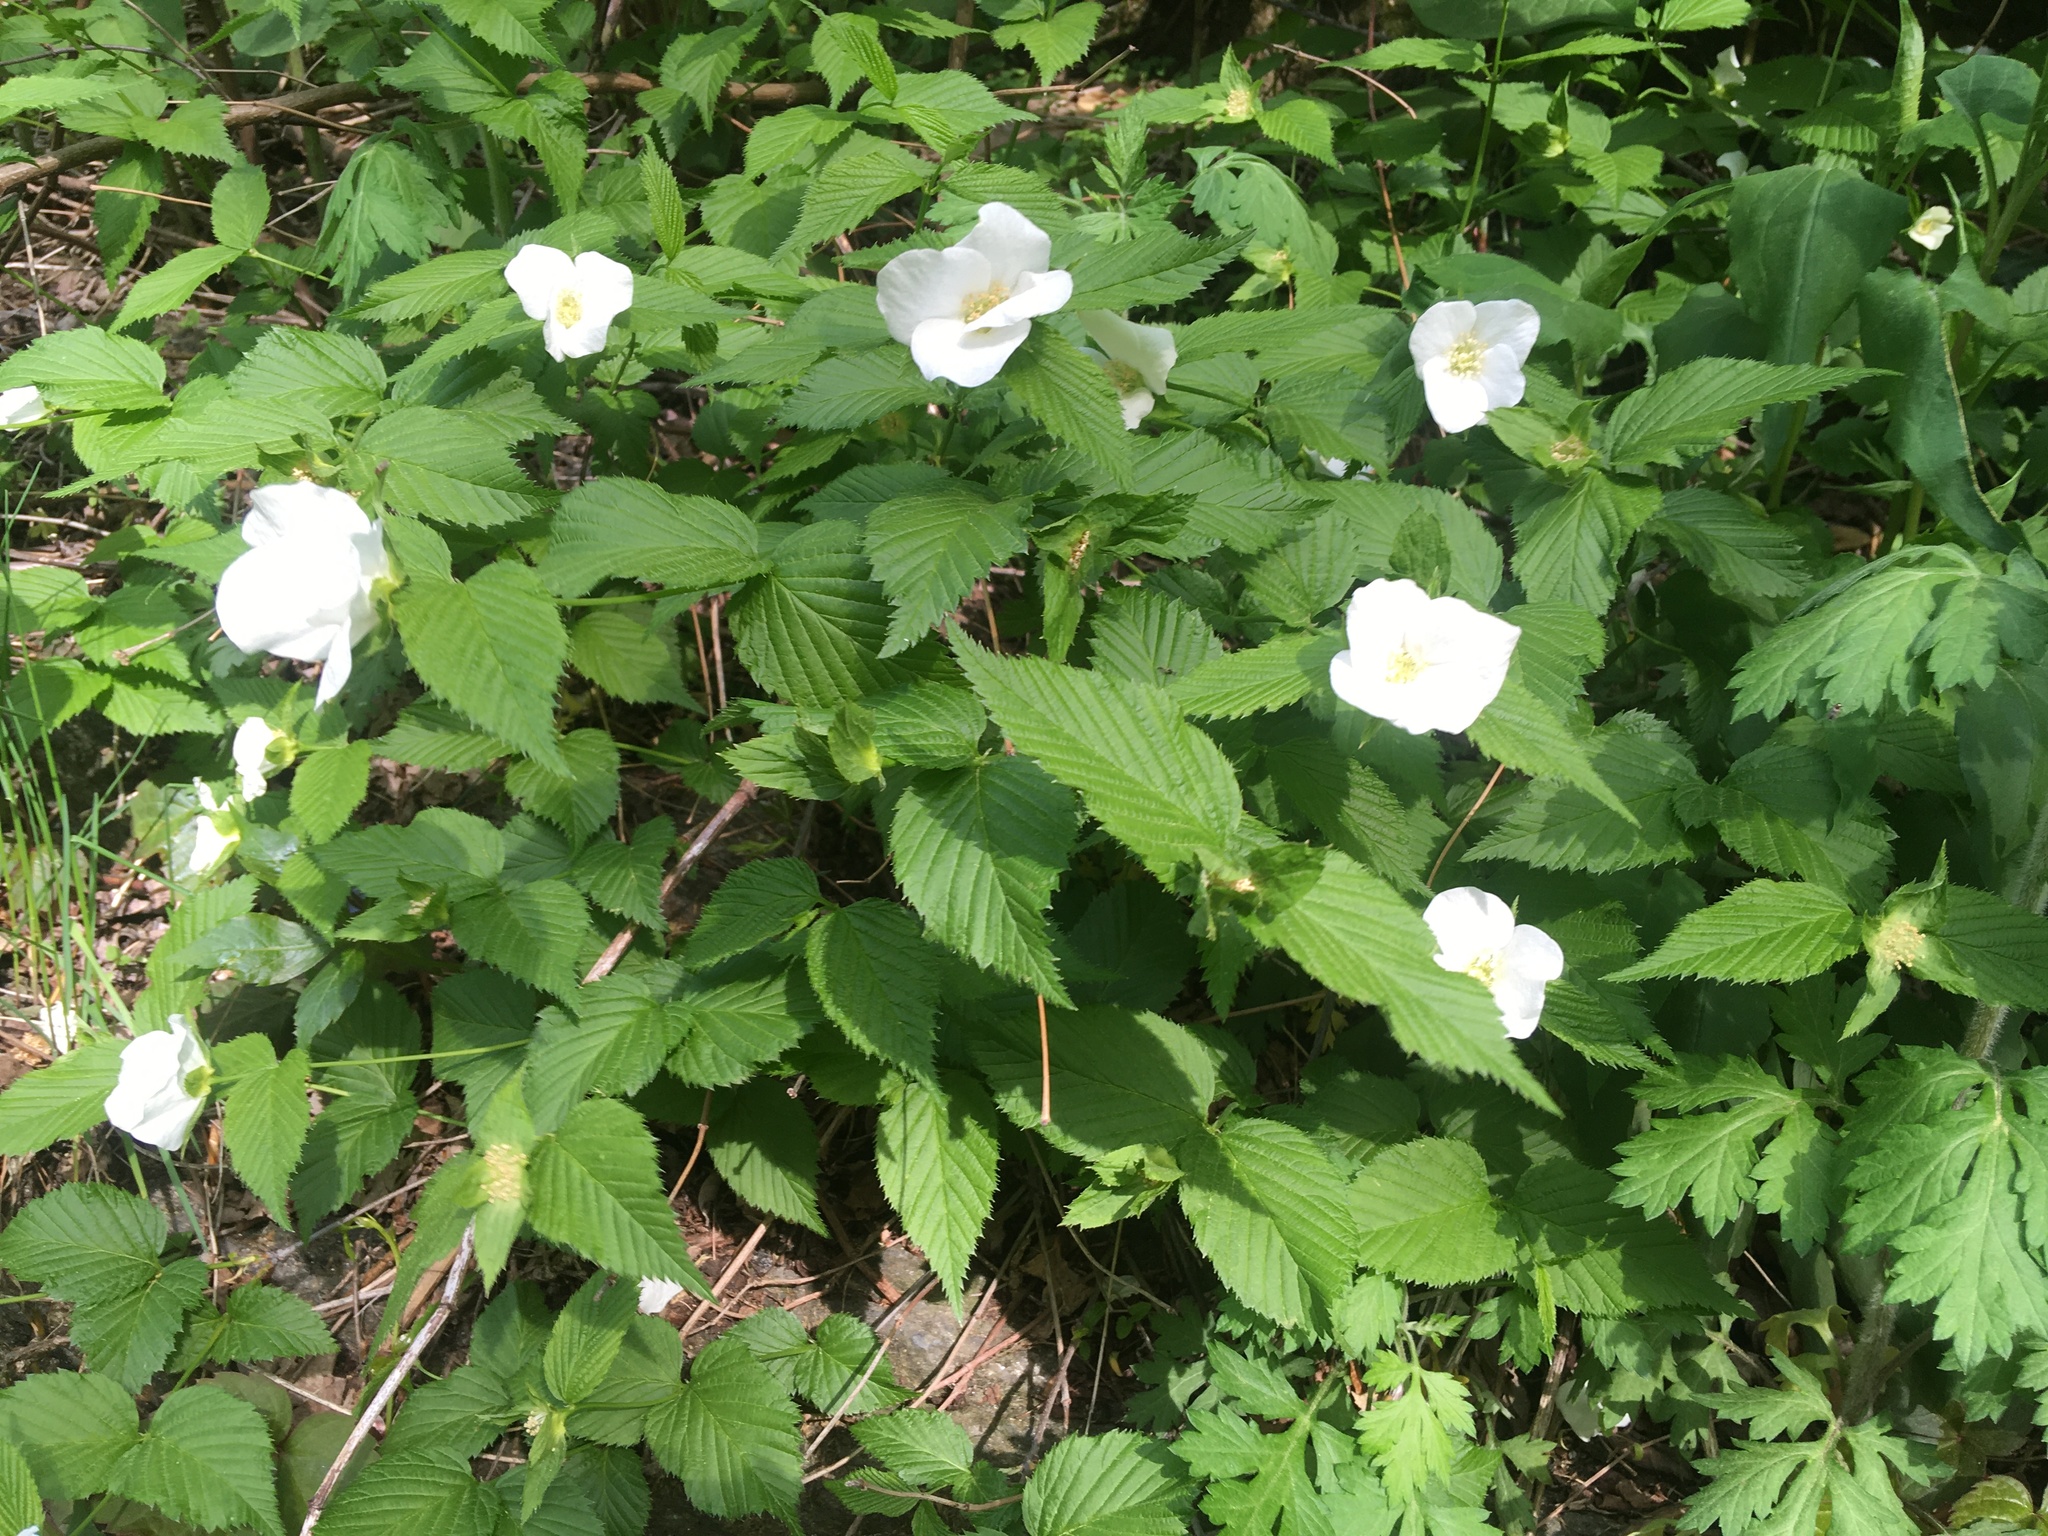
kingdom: Plantae
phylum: Tracheophyta
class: Magnoliopsida
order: Rosales
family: Rosaceae
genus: Rhodotypos
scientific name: Rhodotypos scandens
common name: Jetbead
